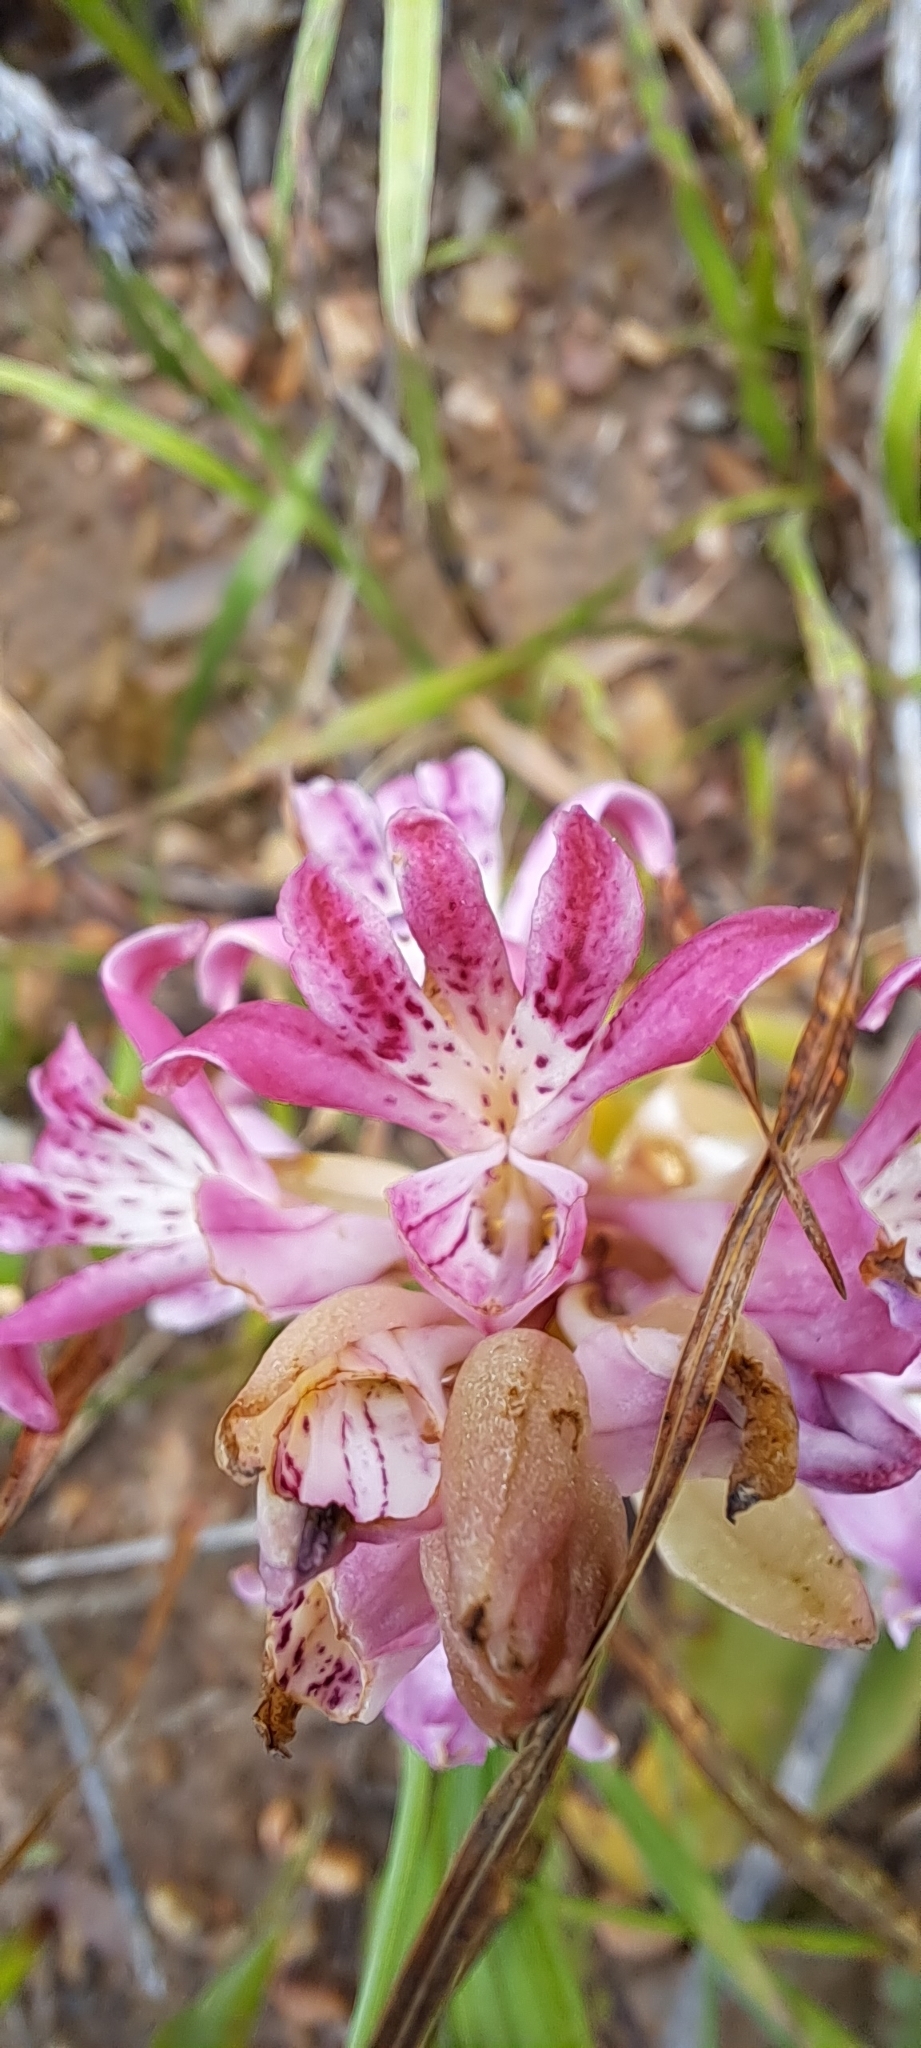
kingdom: Plantae
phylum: Tracheophyta
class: Liliopsida
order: Asparagales
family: Orchidaceae
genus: Satyrium
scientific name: Satyrium erectum
